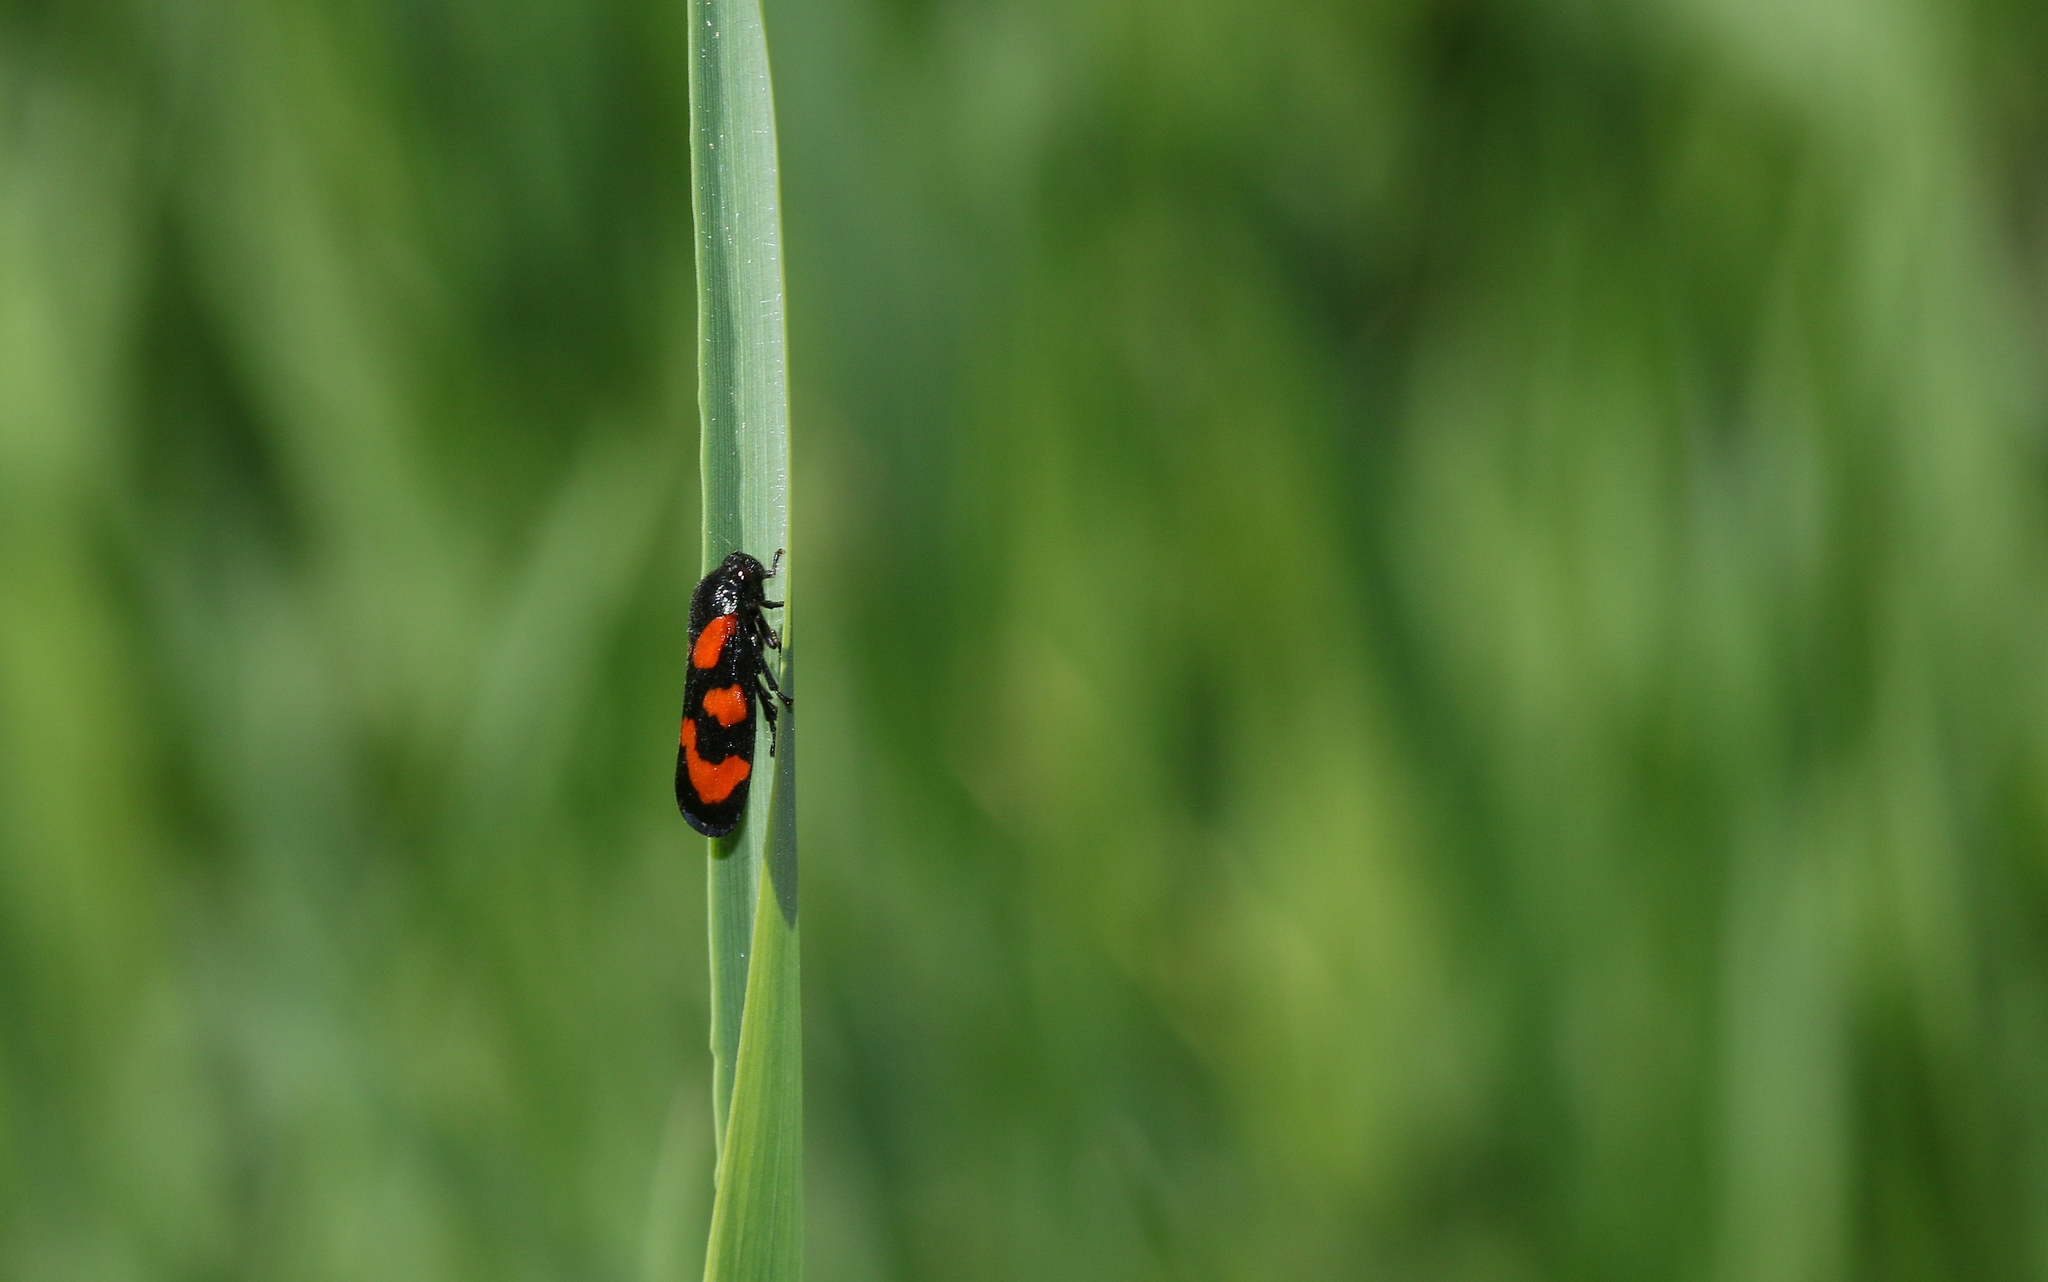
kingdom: Animalia
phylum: Arthropoda
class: Insecta
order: Hemiptera
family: Cercopidae
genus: Cercopis
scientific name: Cercopis vulnerata
